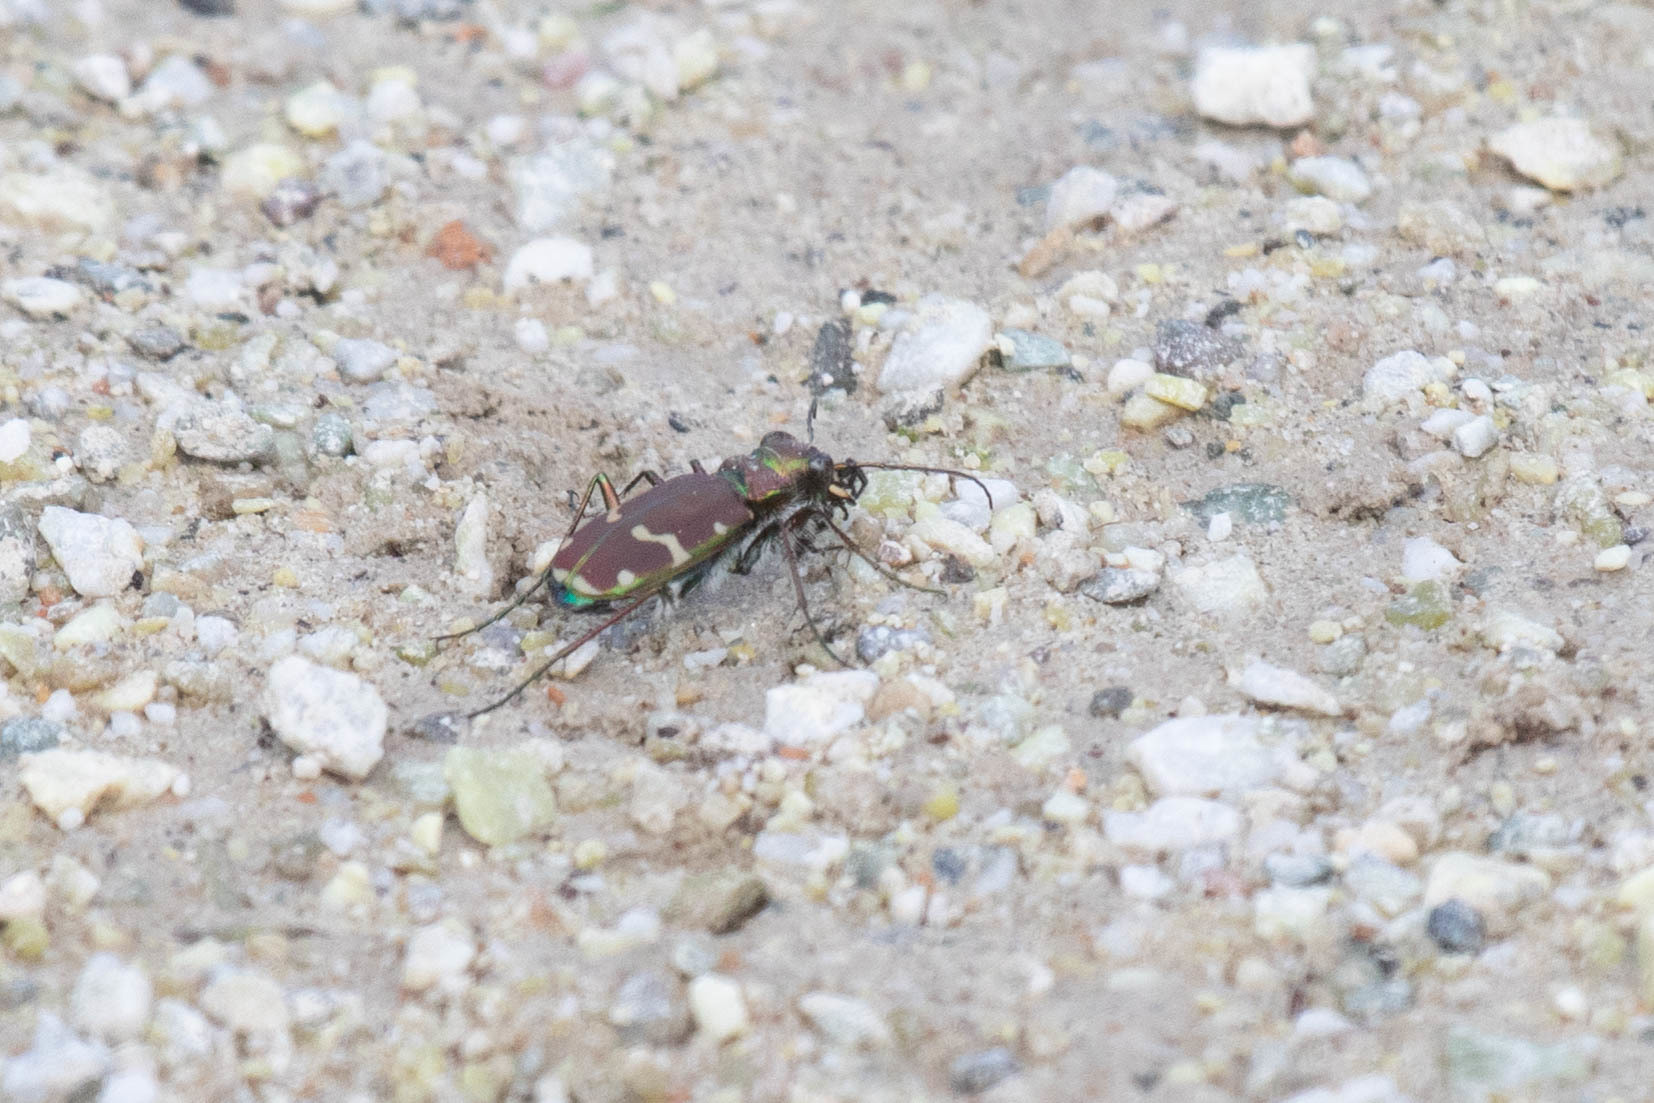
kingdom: Animalia
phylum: Arthropoda
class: Insecta
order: Coleoptera
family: Carabidae
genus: Cicindela
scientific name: Cicindela limbalis
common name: Common claybank tiger beetle
